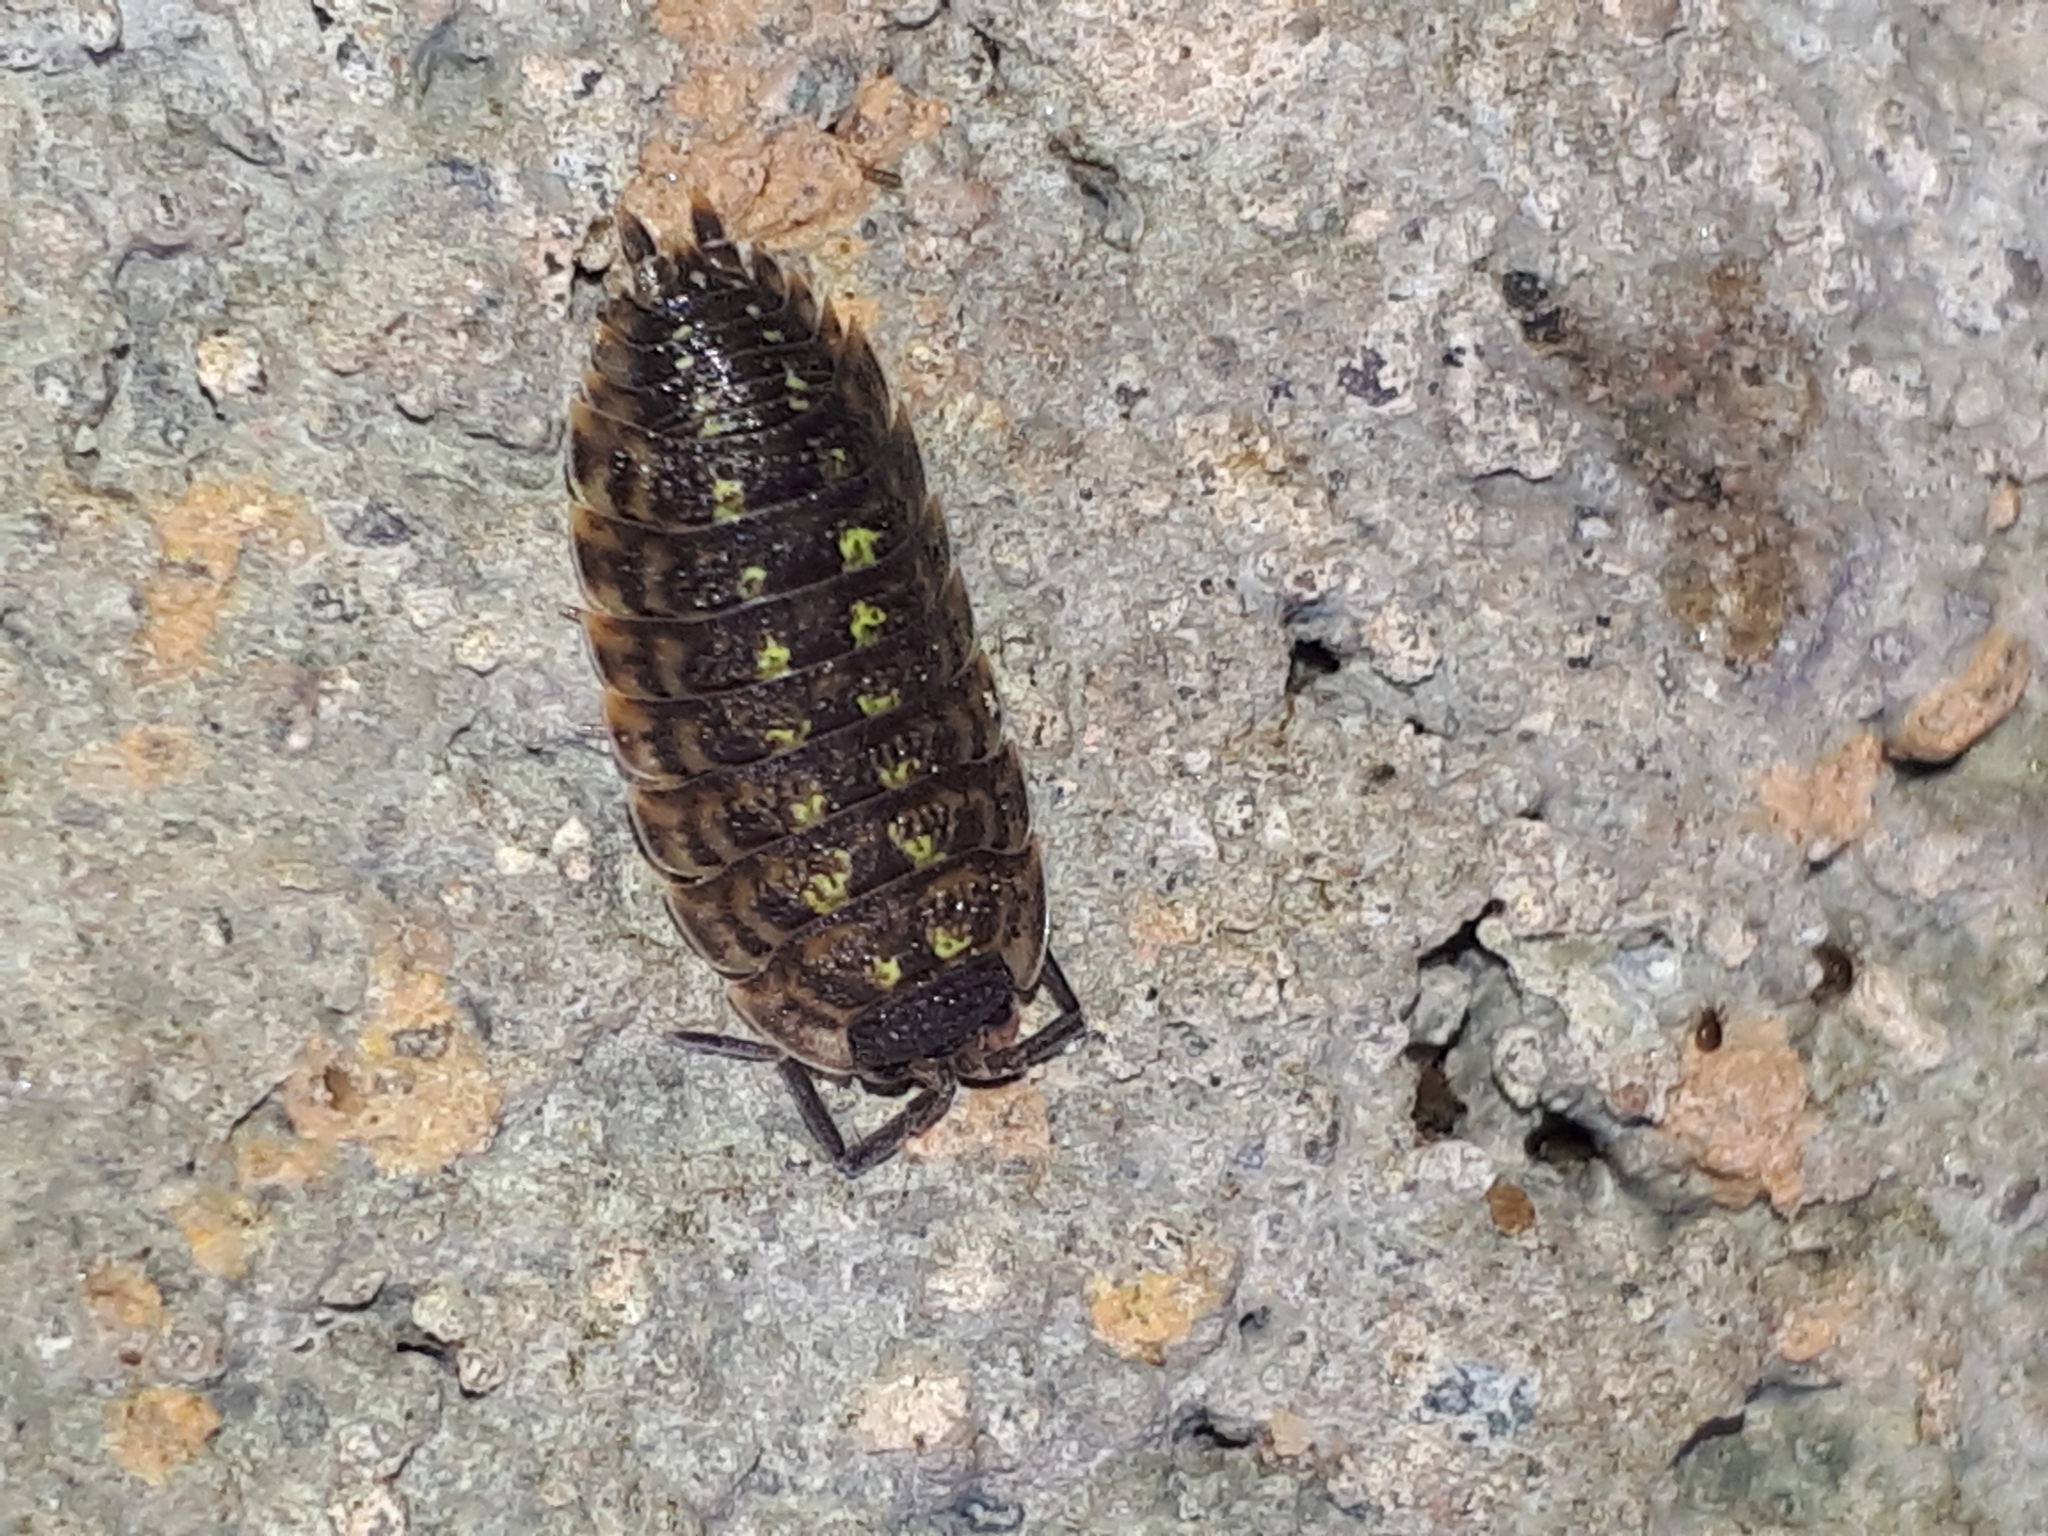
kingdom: Animalia
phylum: Arthropoda
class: Malacostraca
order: Isopoda
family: Porcellionidae
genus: Porcellio
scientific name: Porcellio spinicornis
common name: Painted woodlouse
